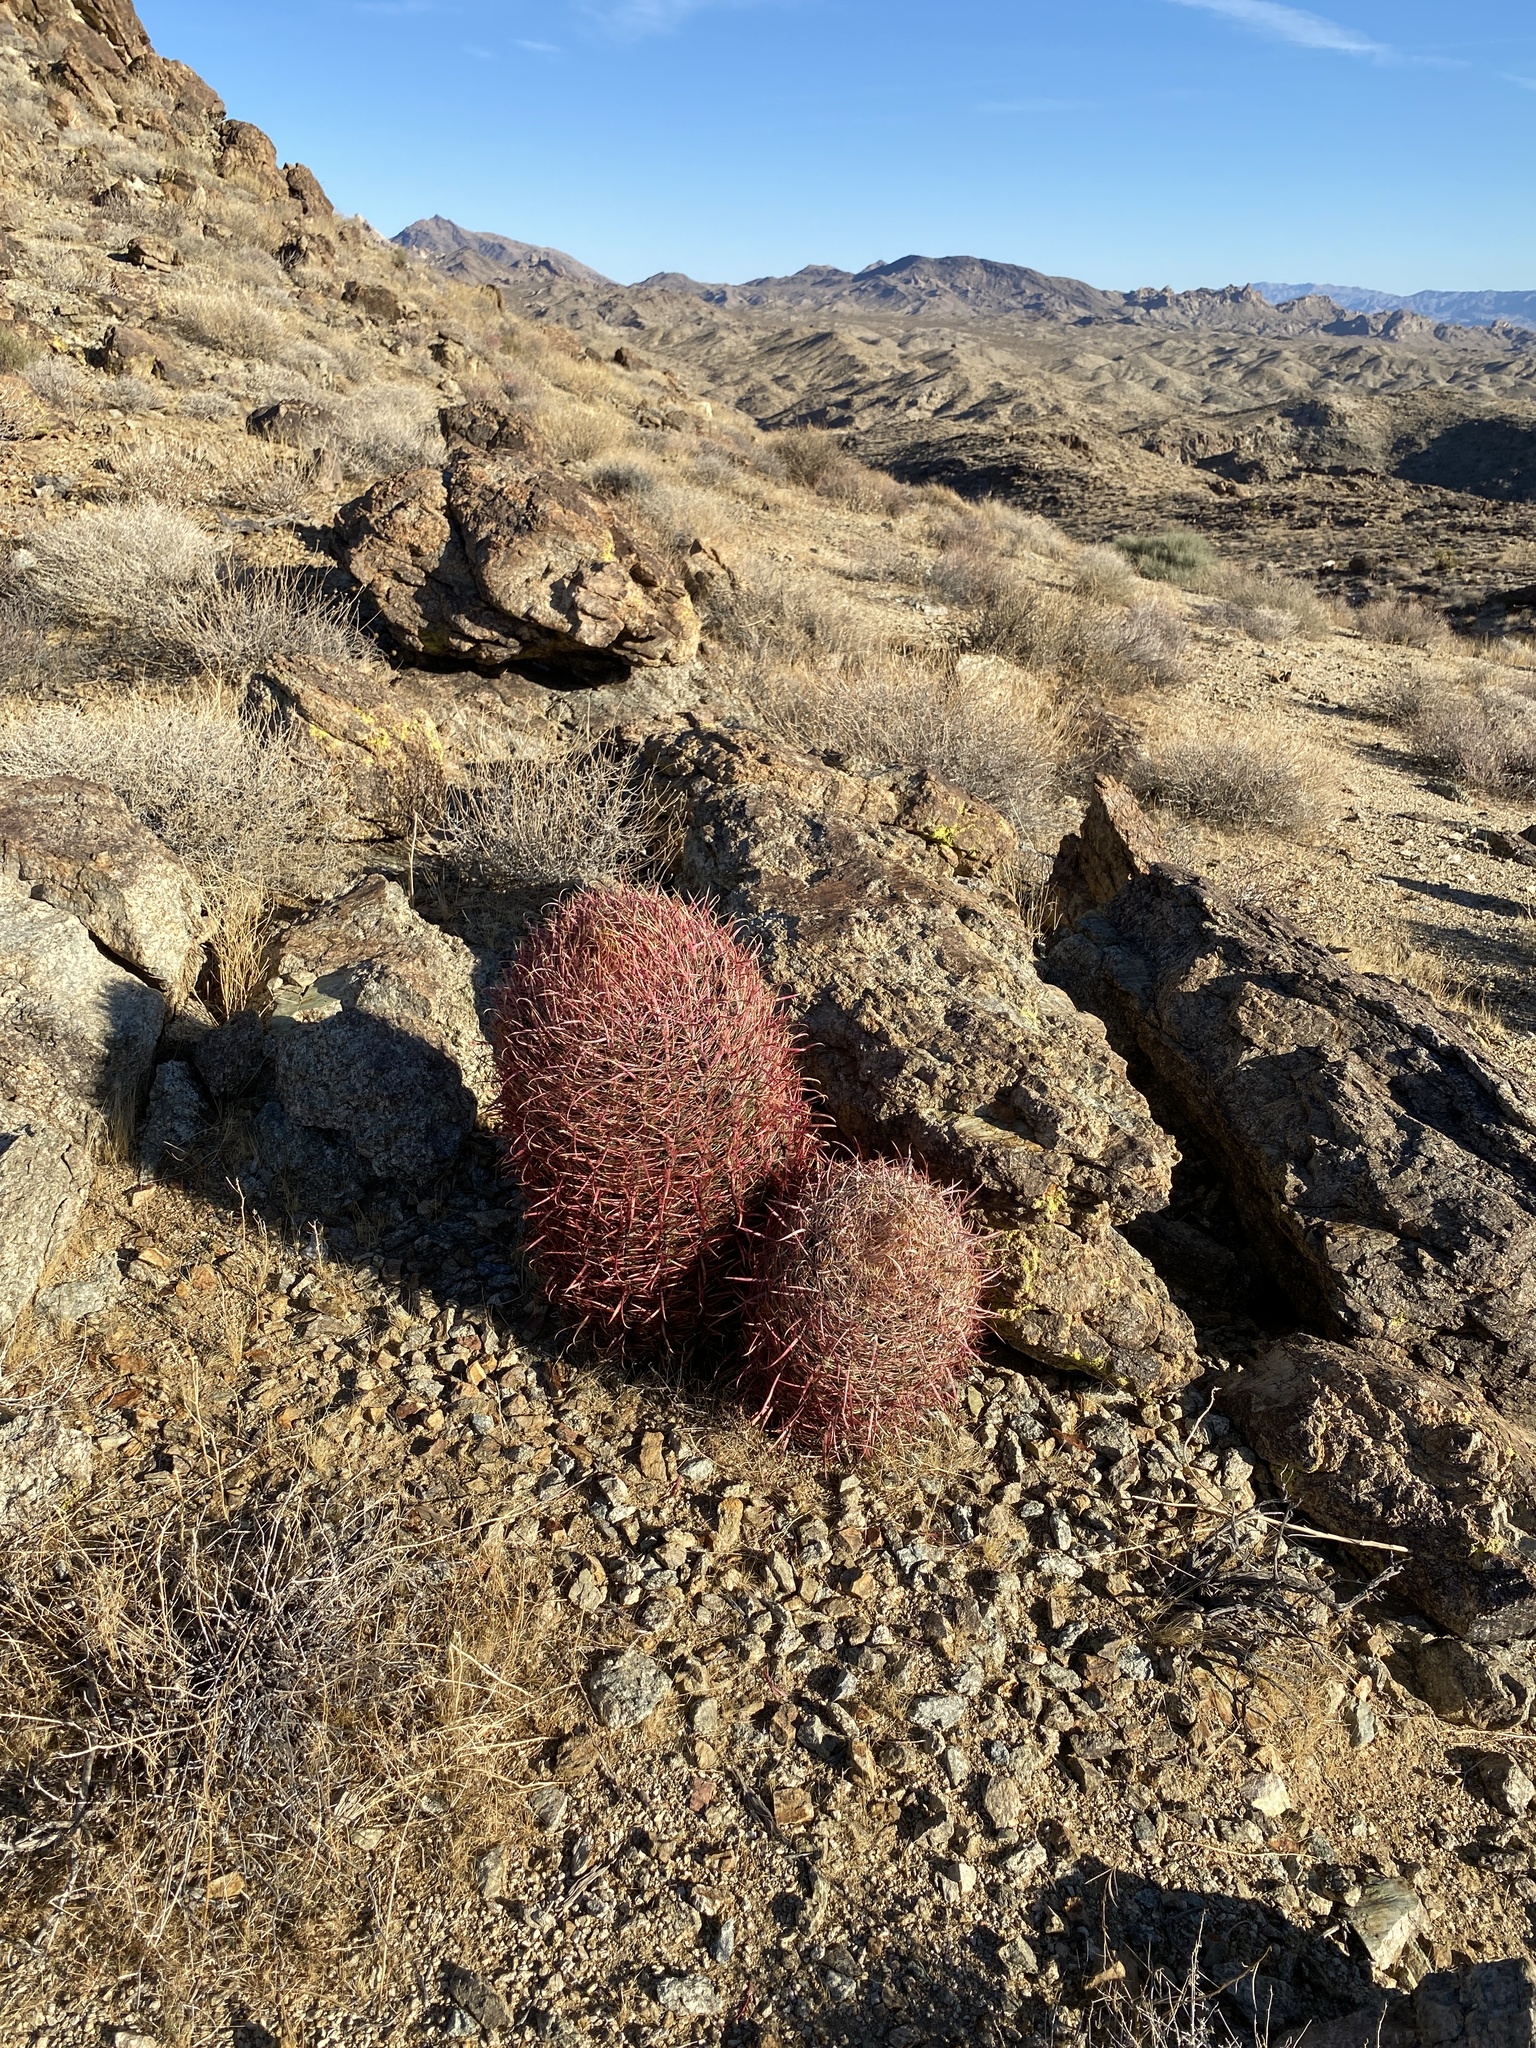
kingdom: Plantae
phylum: Tracheophyta
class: Magnoliopsida
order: Caryophyllales
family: Cactaceae
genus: Ferocactus
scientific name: Ferocactus cylindraceus
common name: California barrel cactus
